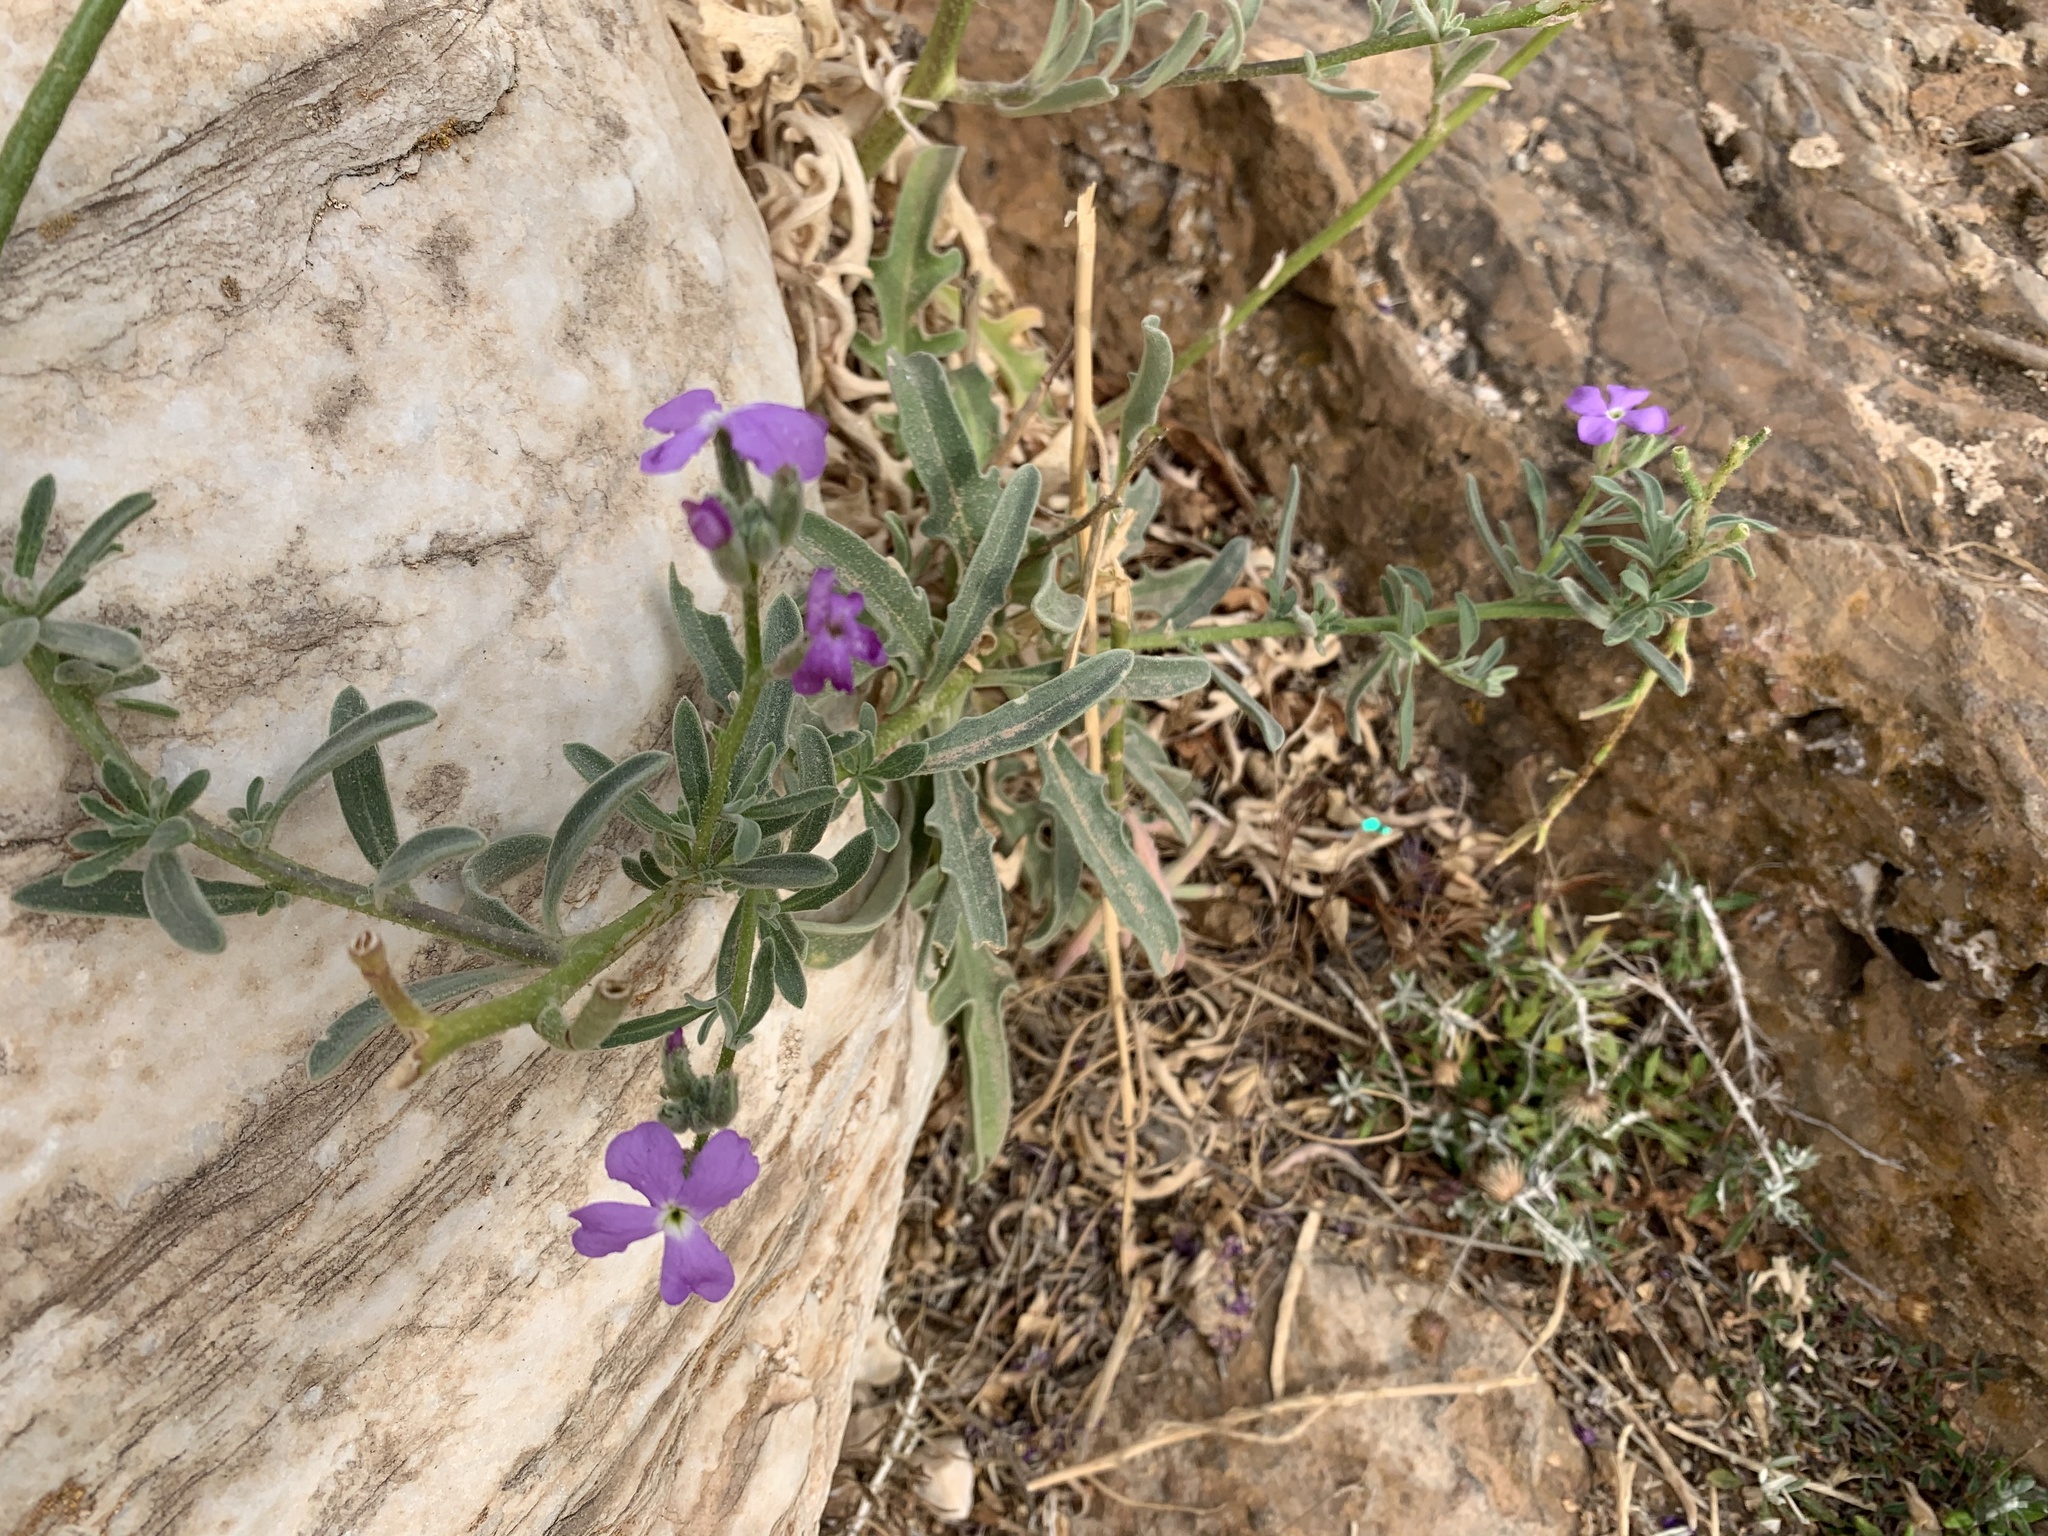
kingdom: Plantae
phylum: Tracheophyta
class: Magnoliopsida
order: Brassicales
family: Brassicaceae
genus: Matthiola
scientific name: Matthiola sinuata
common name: Sea stock
